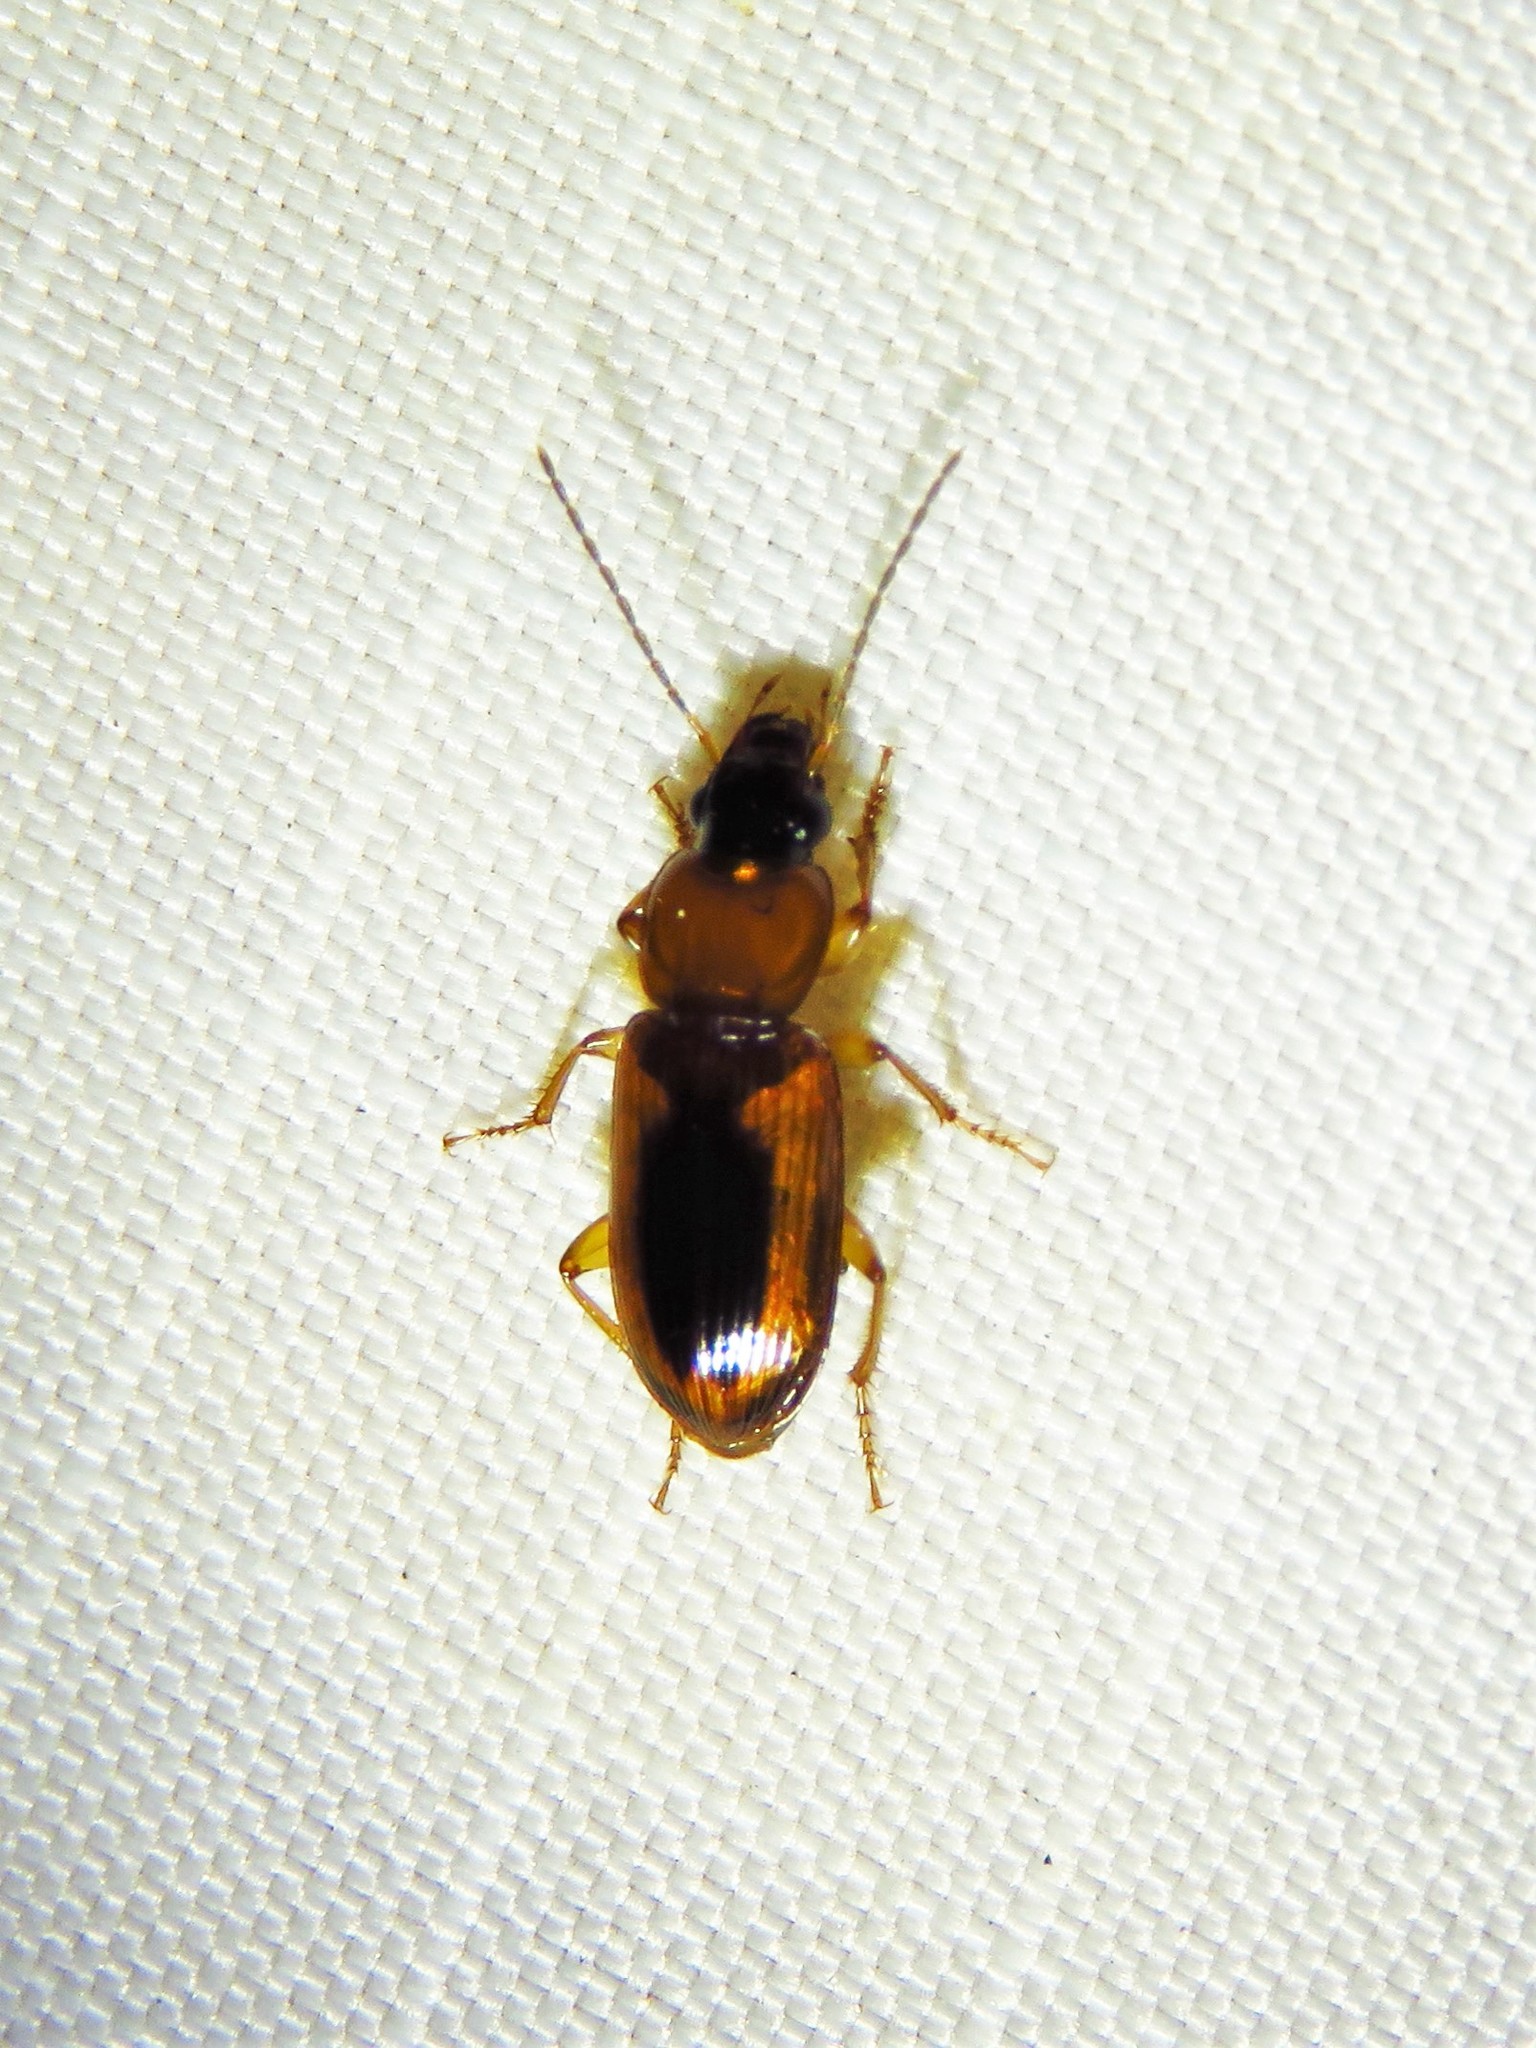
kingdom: Animalia
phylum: Arthropoda
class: Insecta
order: Coleoptera
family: Carabidae
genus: Stenolophus
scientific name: Stenolophus dissimilis
